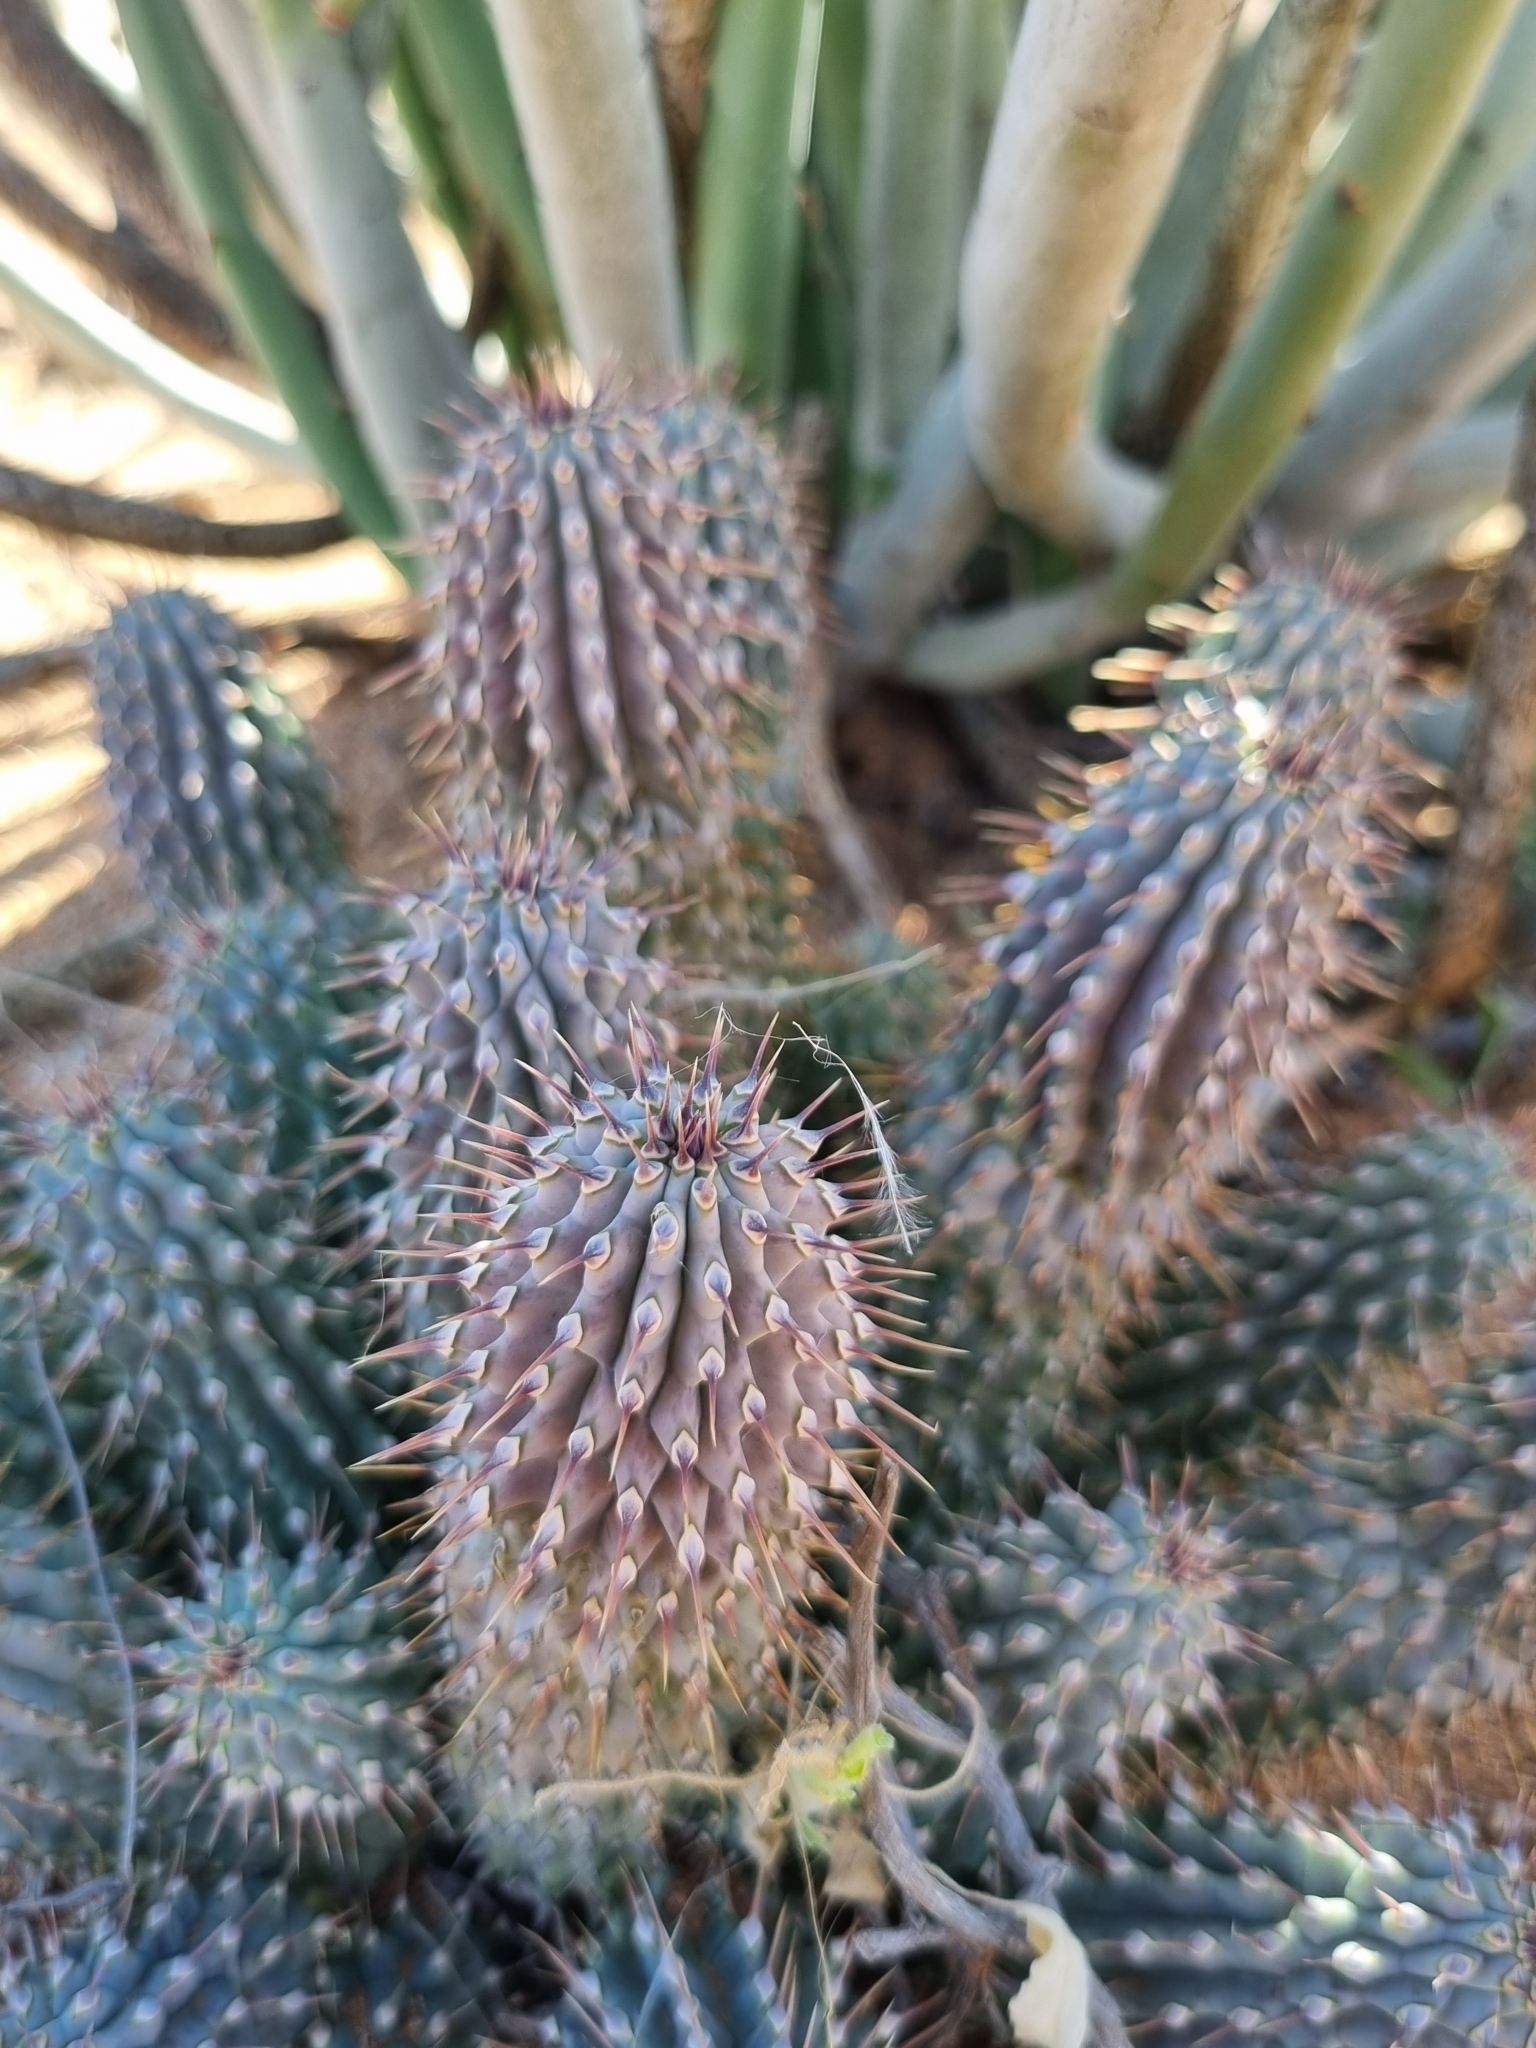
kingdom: Plantae
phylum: Tracheophyta
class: Magnoliopsida
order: Gentianales
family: Apocynaceae
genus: Hoodia
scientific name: Hoodia gordonii
